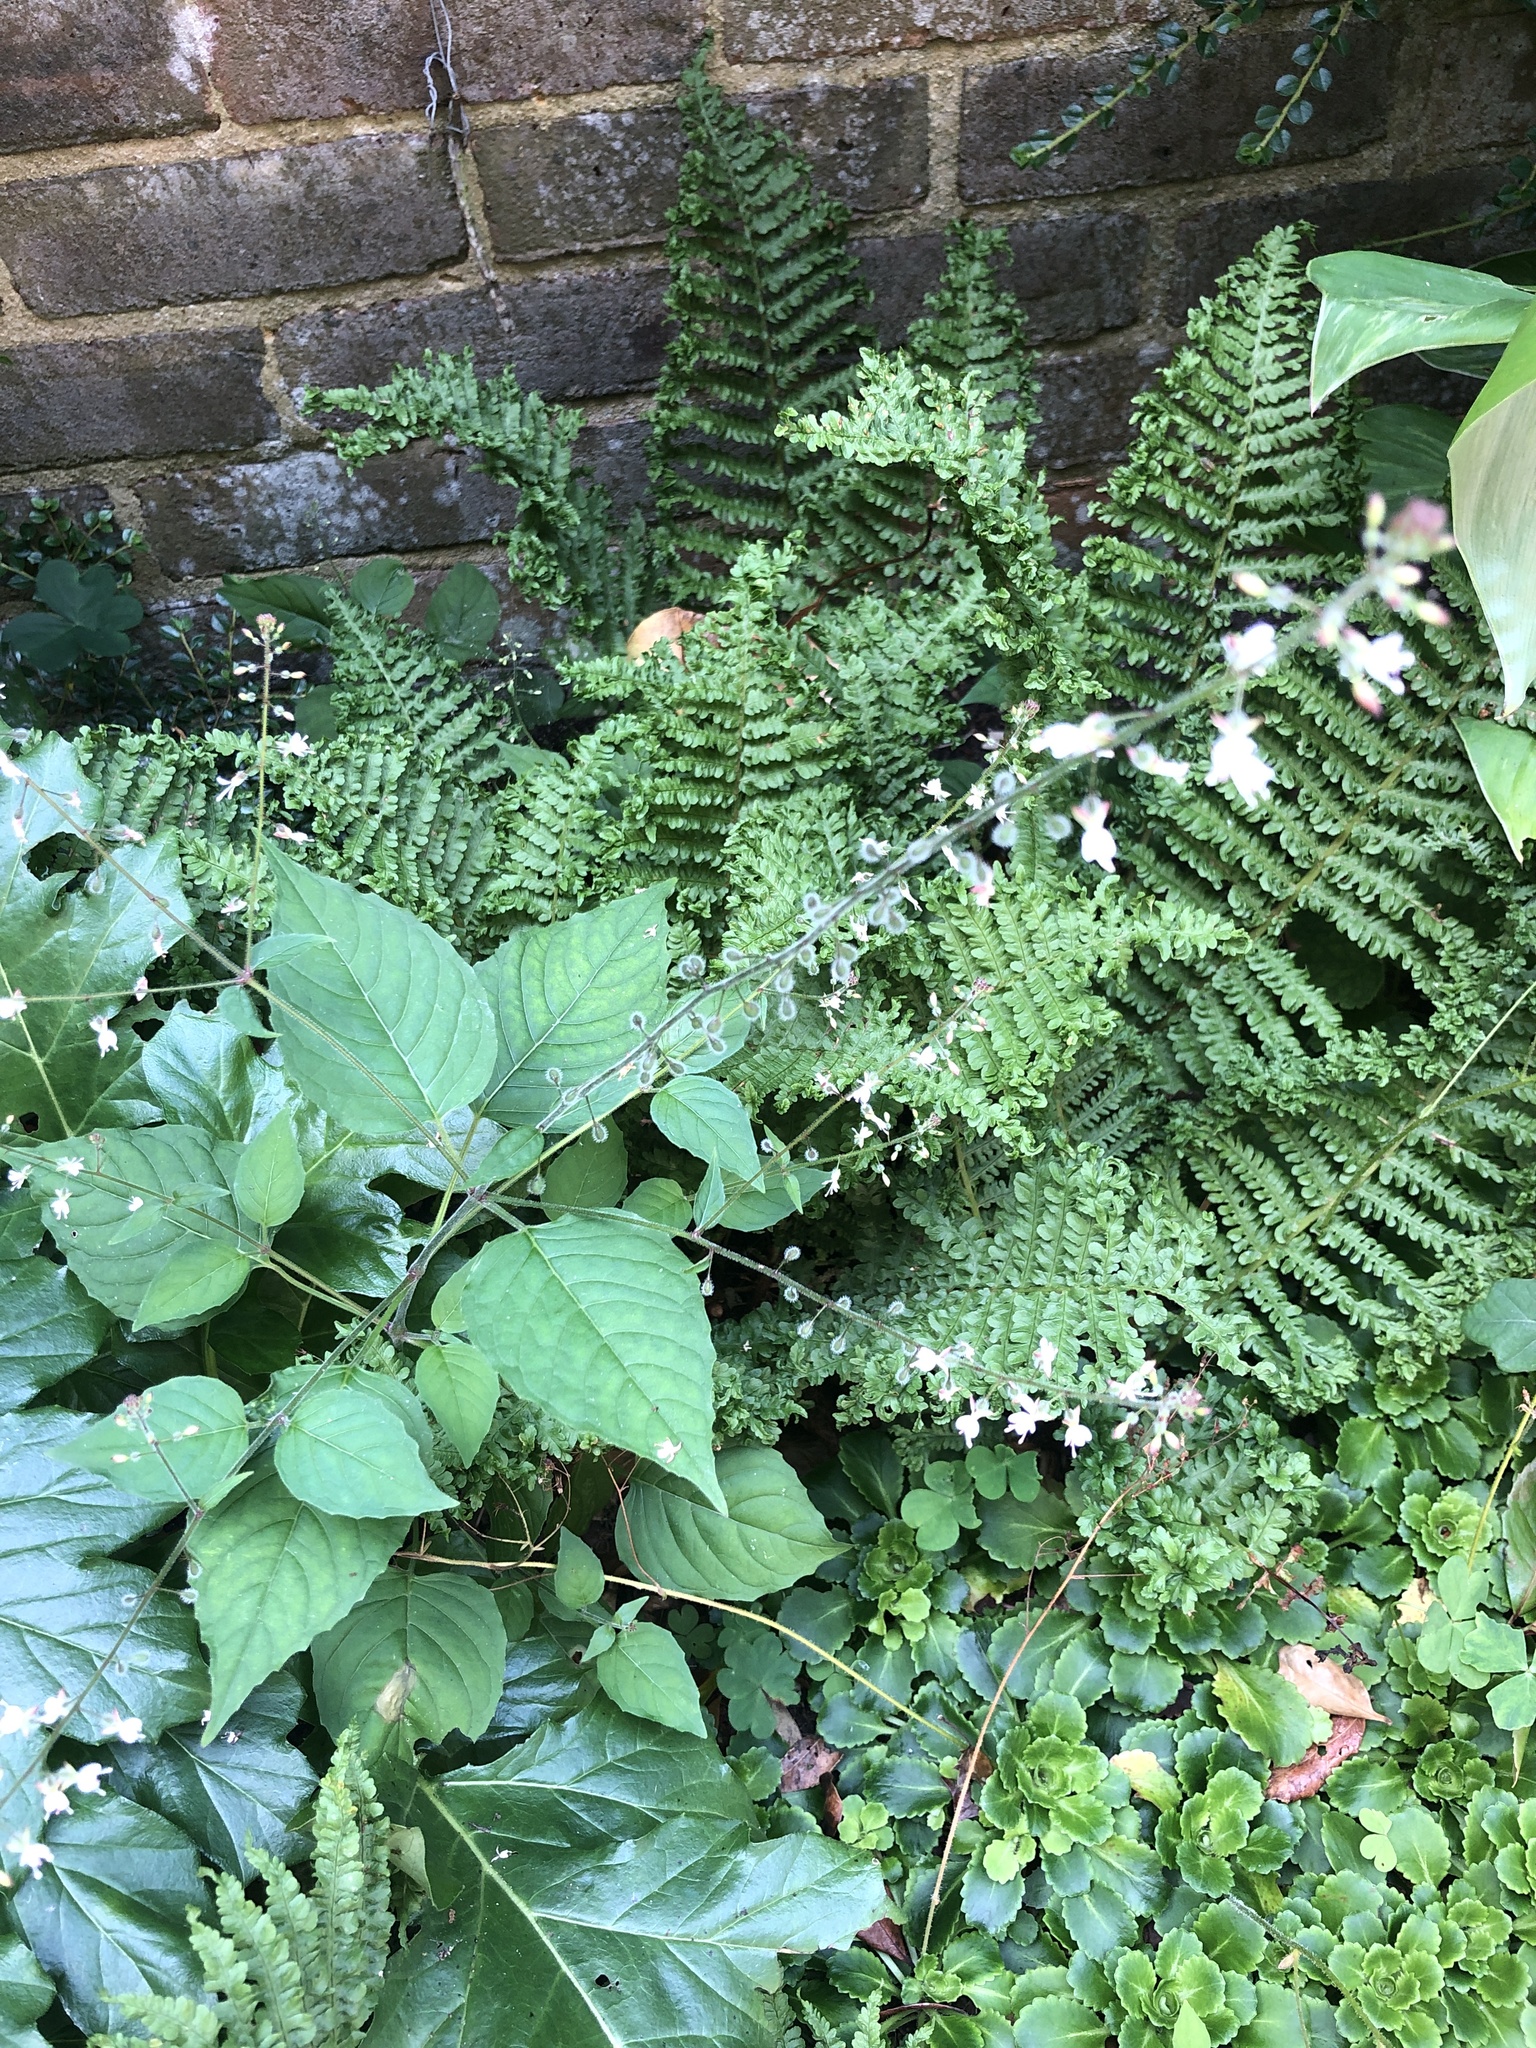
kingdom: Plantae
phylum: Tracheophyta
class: Magnoliopsida
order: Myrtales
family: Onagraceae
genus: Circaea
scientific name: Circaea lutetiana
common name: Enchanter's-nightshade
